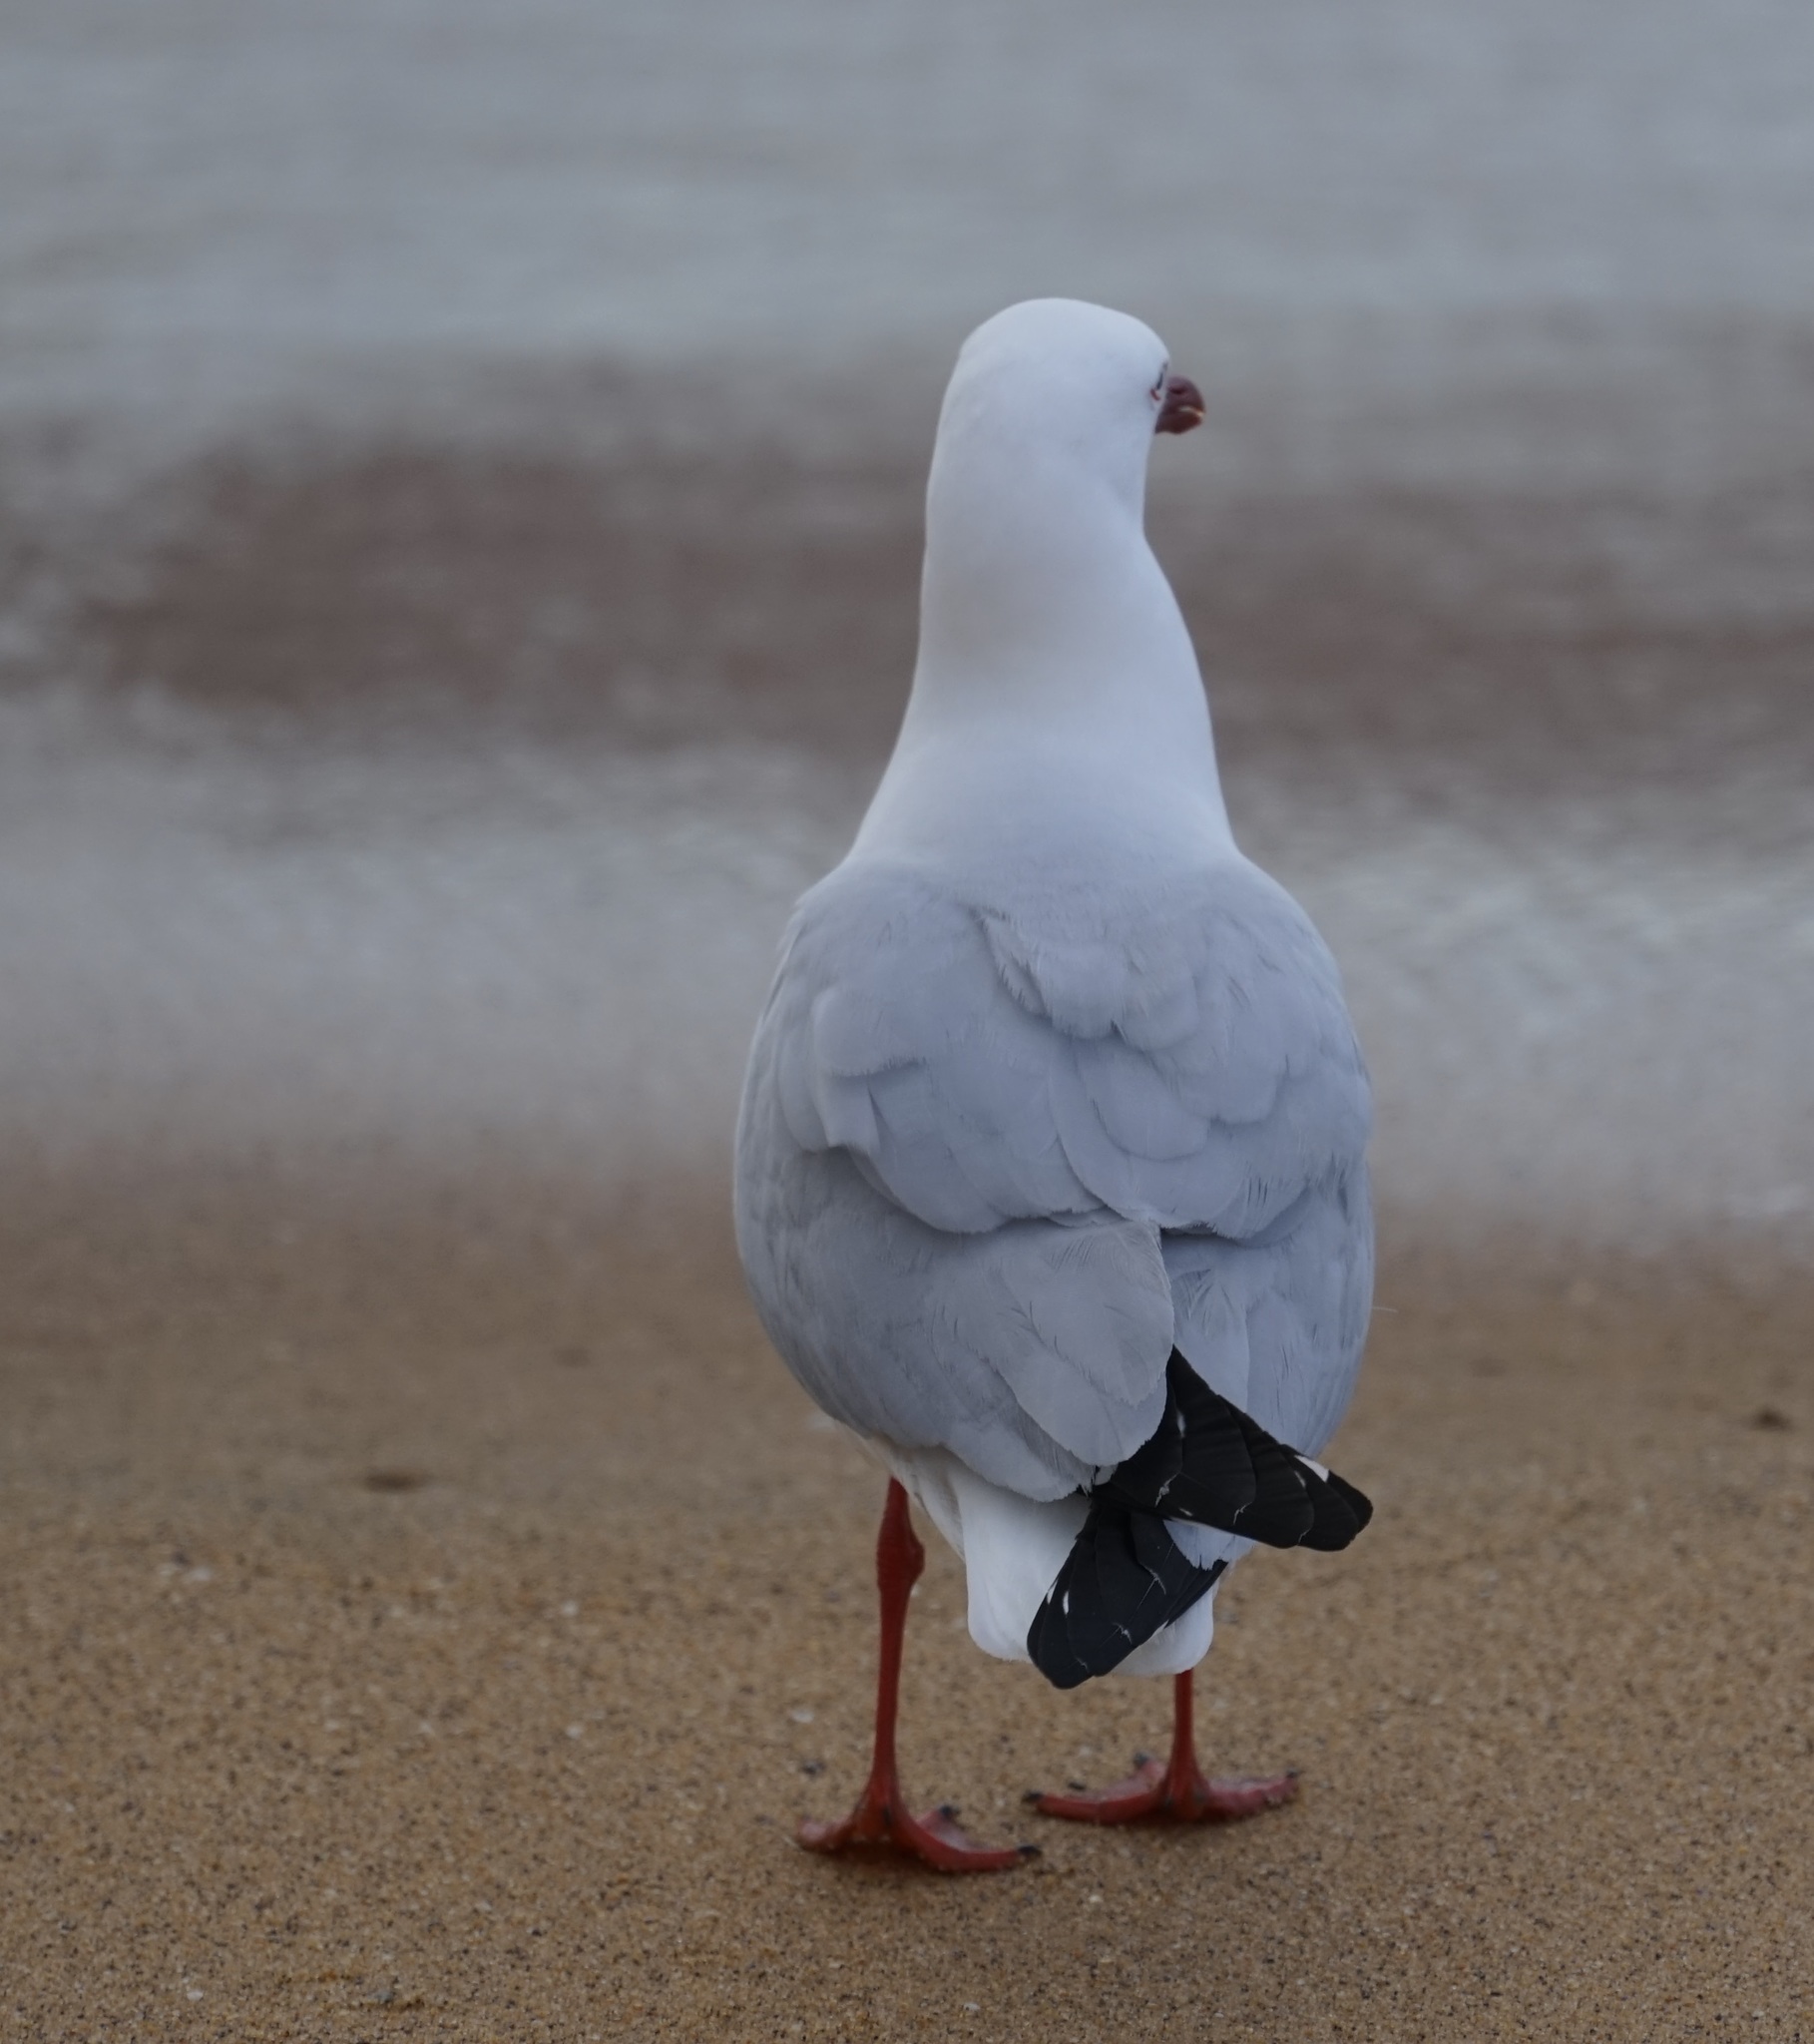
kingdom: Animalia
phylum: Chordata
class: Aves
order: Charadriiformes
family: Laridae
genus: Chroicocephalus
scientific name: Chroicocephalus novaehollandiae
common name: Silver gull
